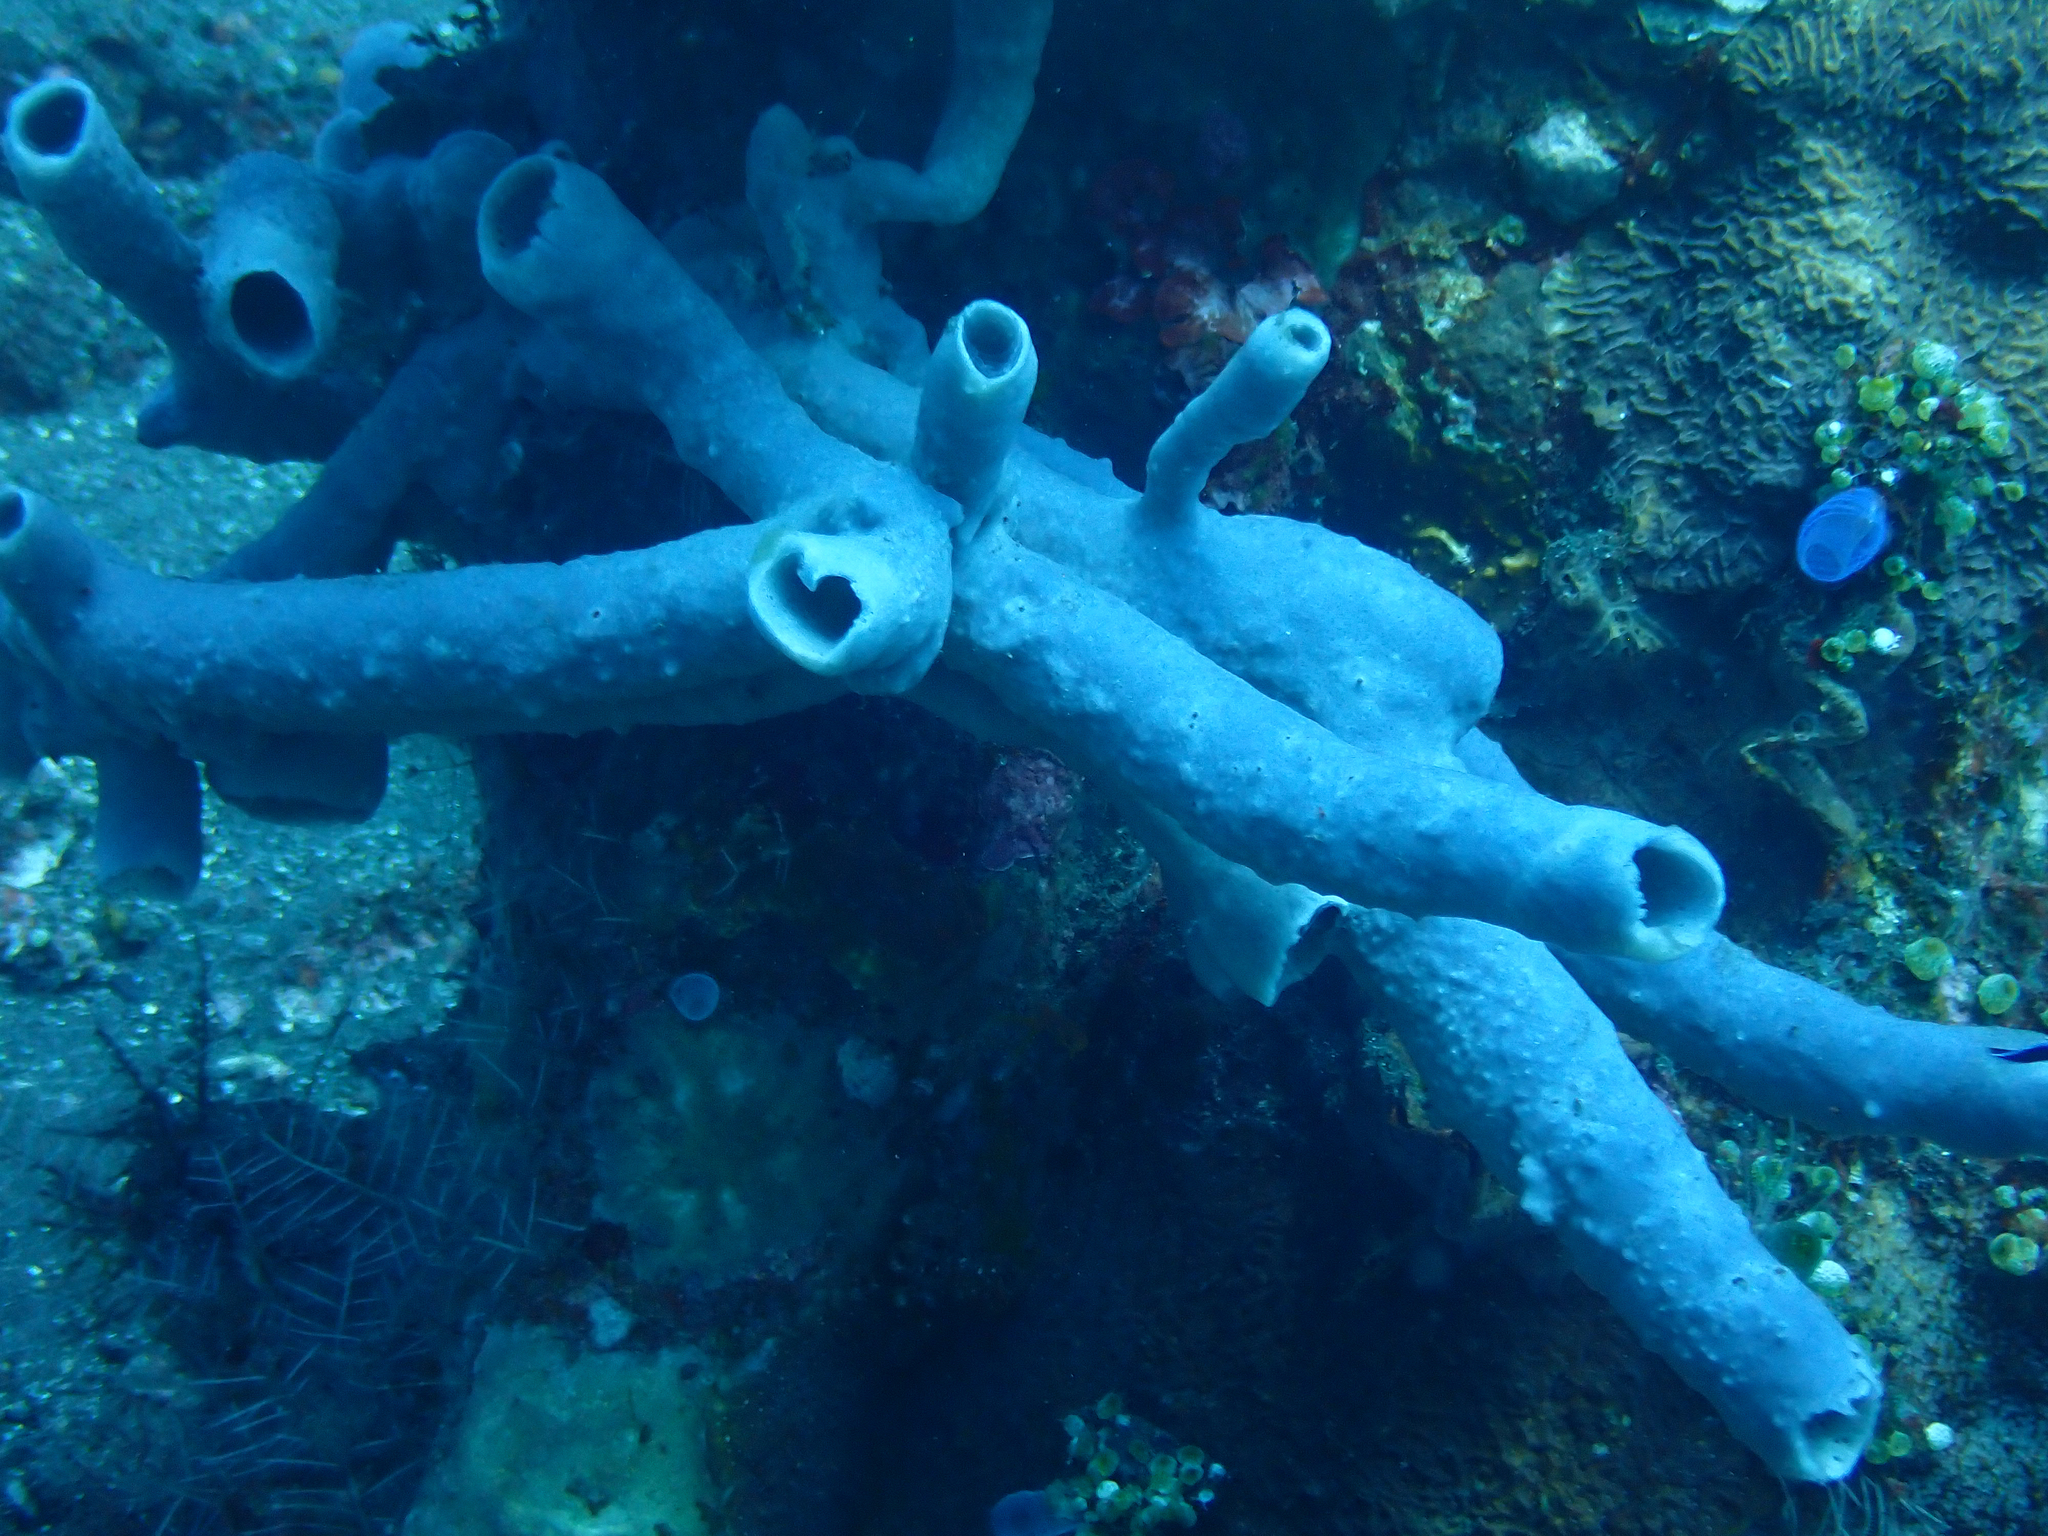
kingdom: Animalia
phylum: Porifera
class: Demospongiae
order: Haplosclerida
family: Chalinidae
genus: Haliclona
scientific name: Haliclona fascigera
